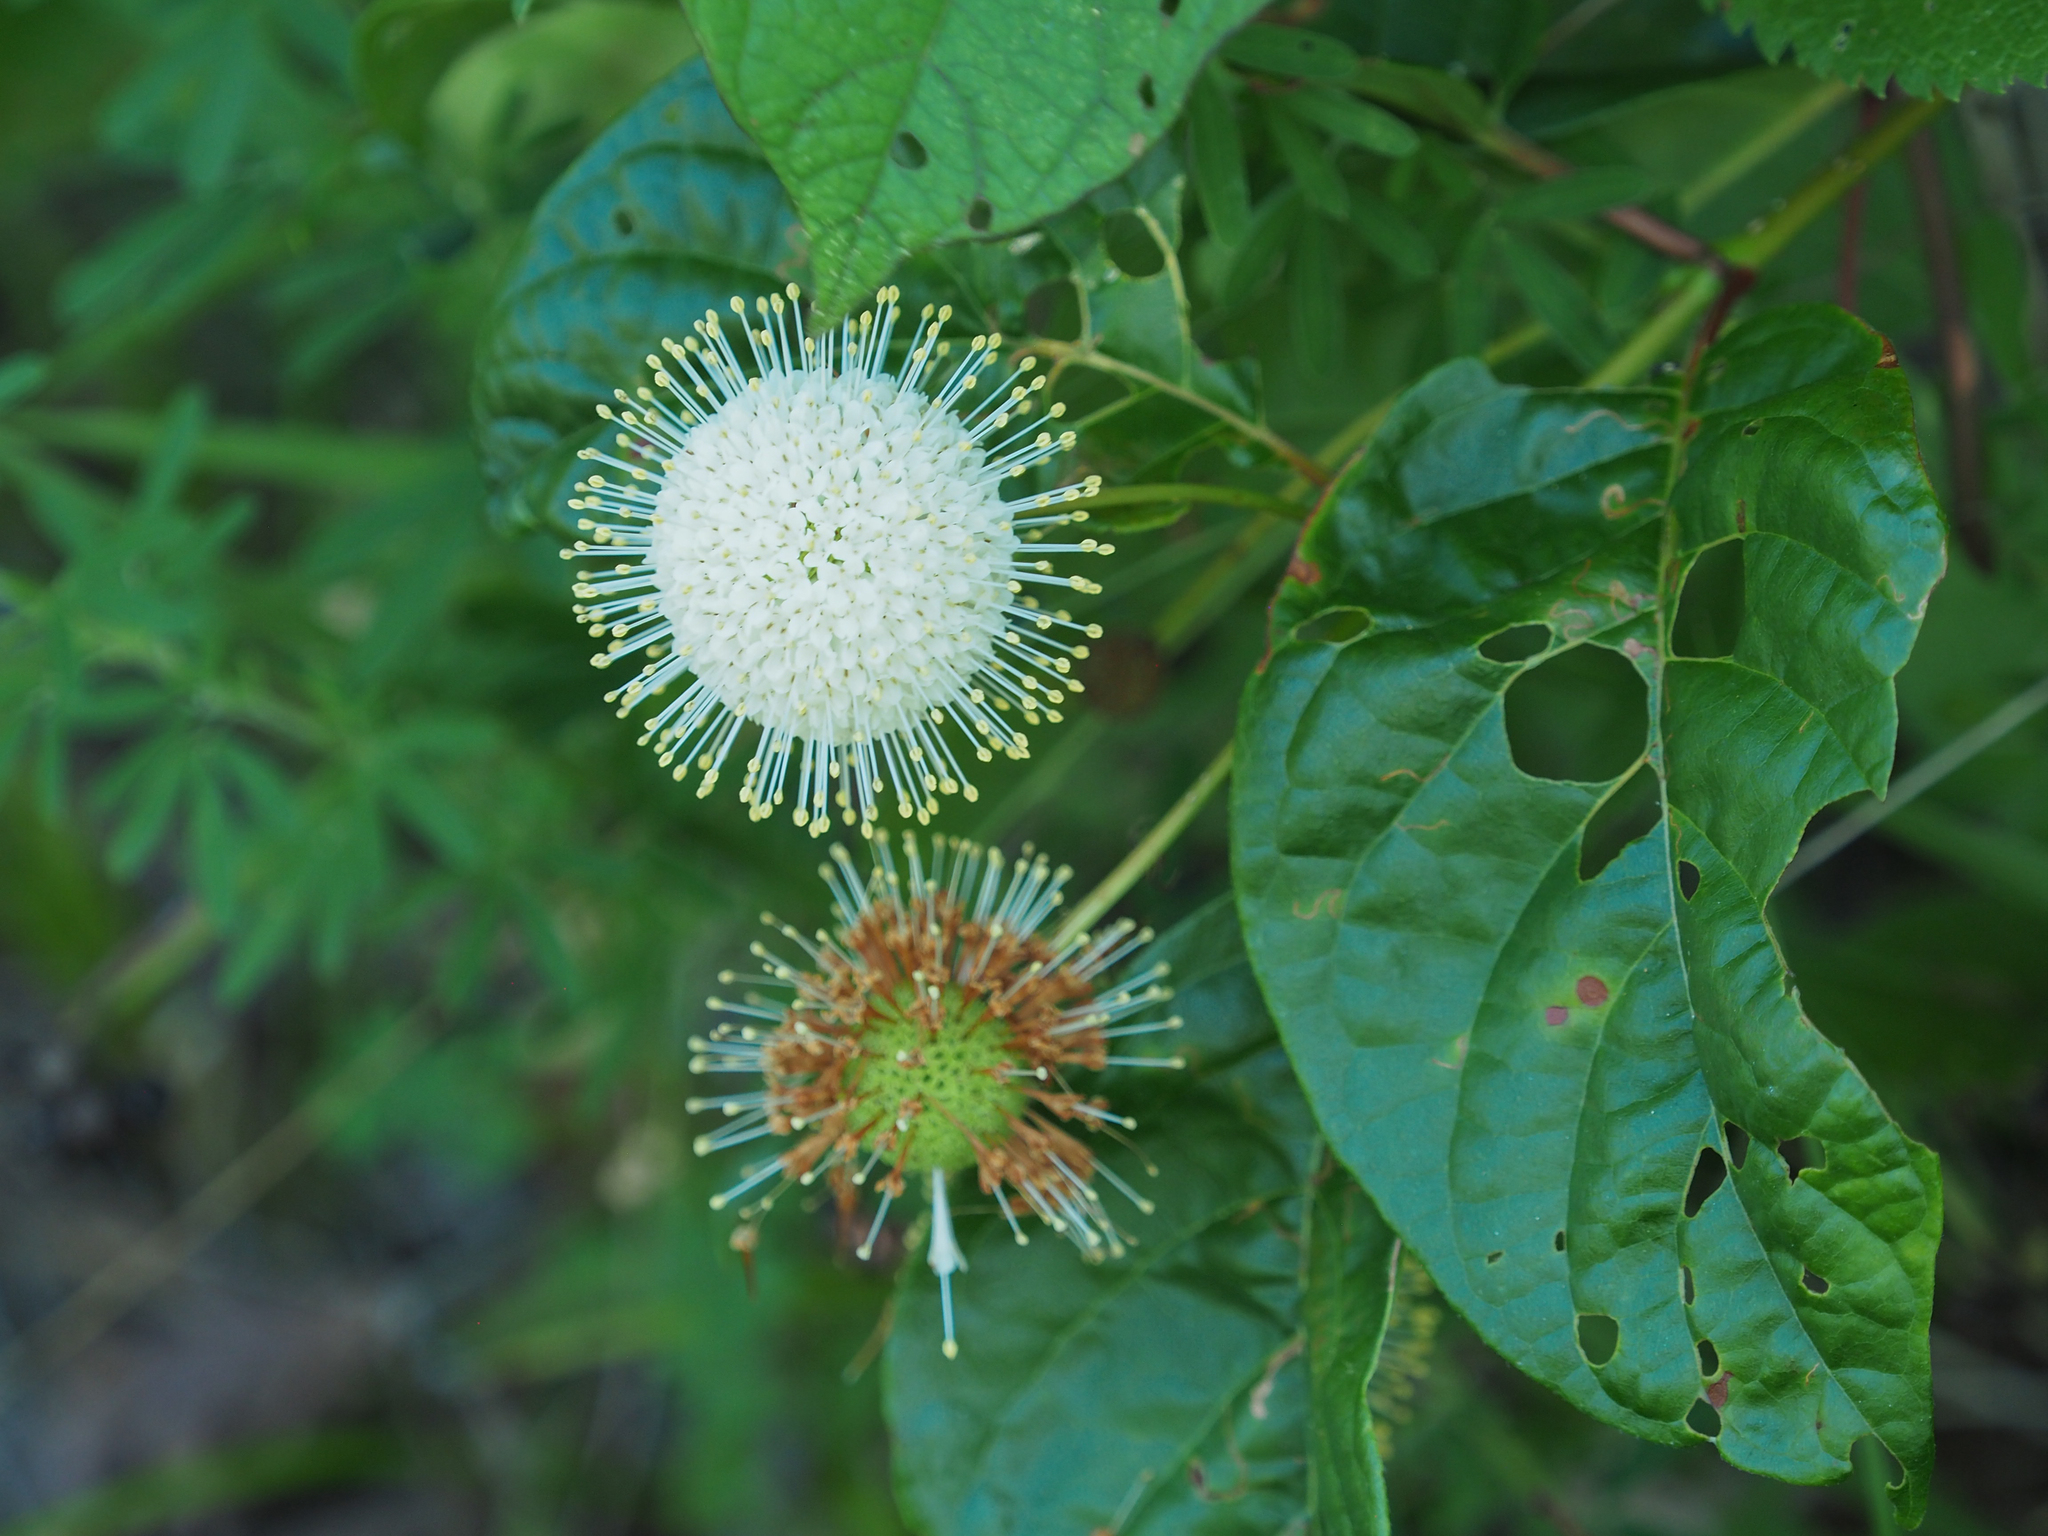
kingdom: Plantae
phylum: Tracheophyta
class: Magnoliopsida
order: Gentianales
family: Rubiaceae
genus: Cephalanthus
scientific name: Cephalanthus occidentalis
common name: Button-willow
